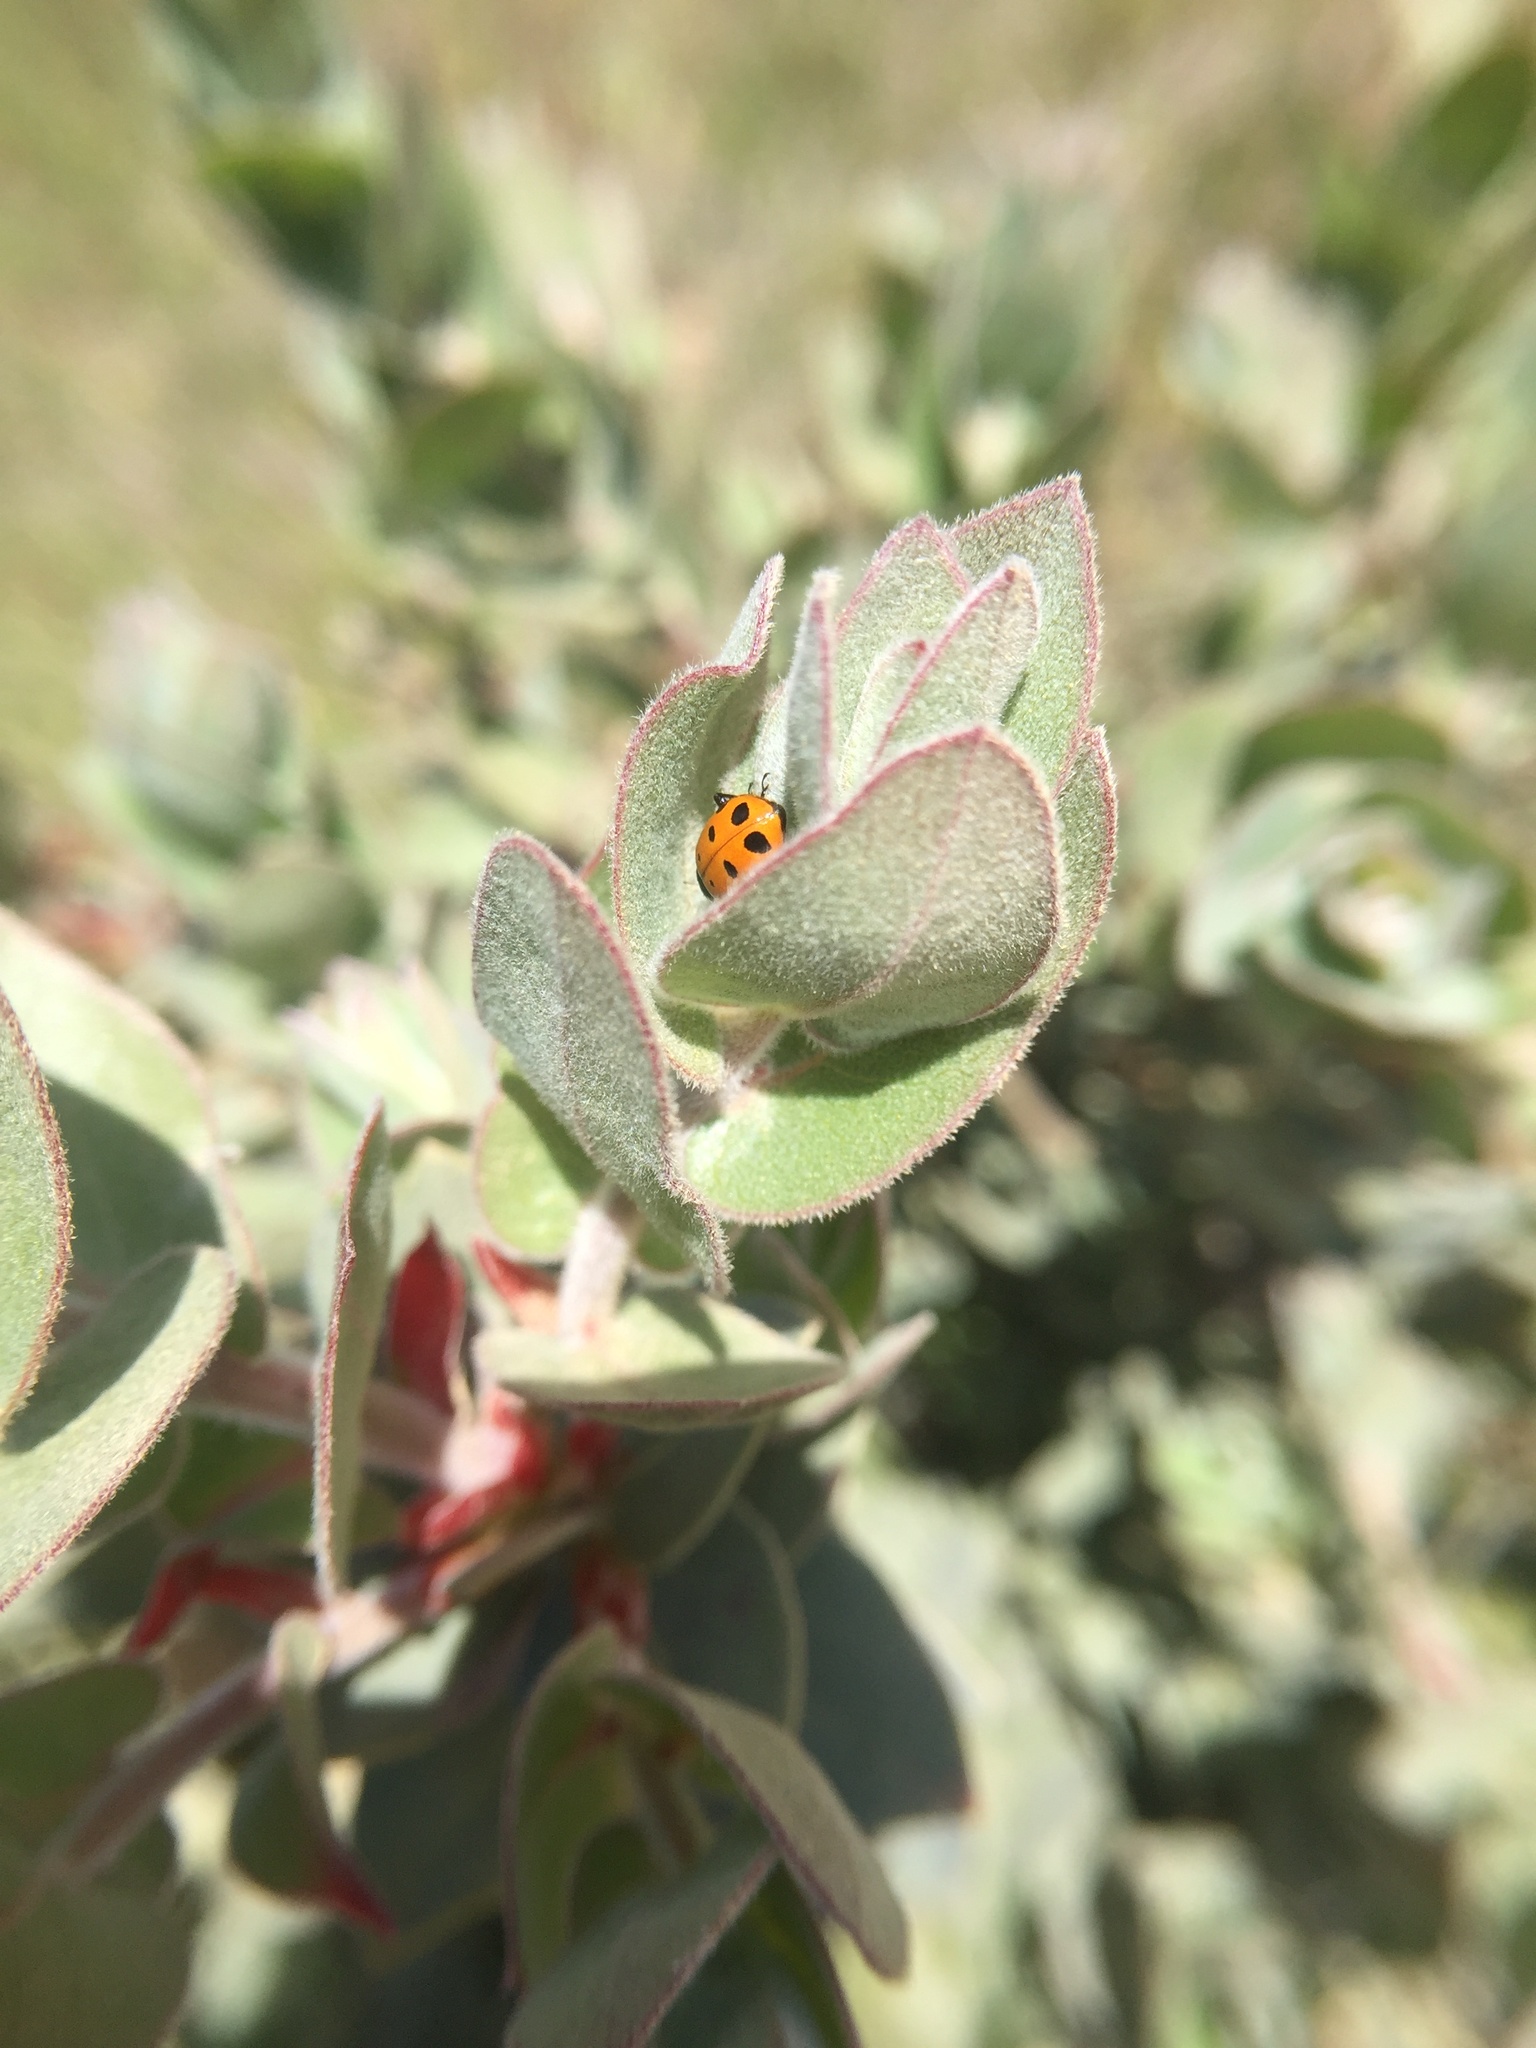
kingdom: Plantae
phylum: Tracheophyta
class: Magnoliopsida
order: Ericales
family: Ericaceae
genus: Arctostaphylos
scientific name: Arctostaphylos auriculata
